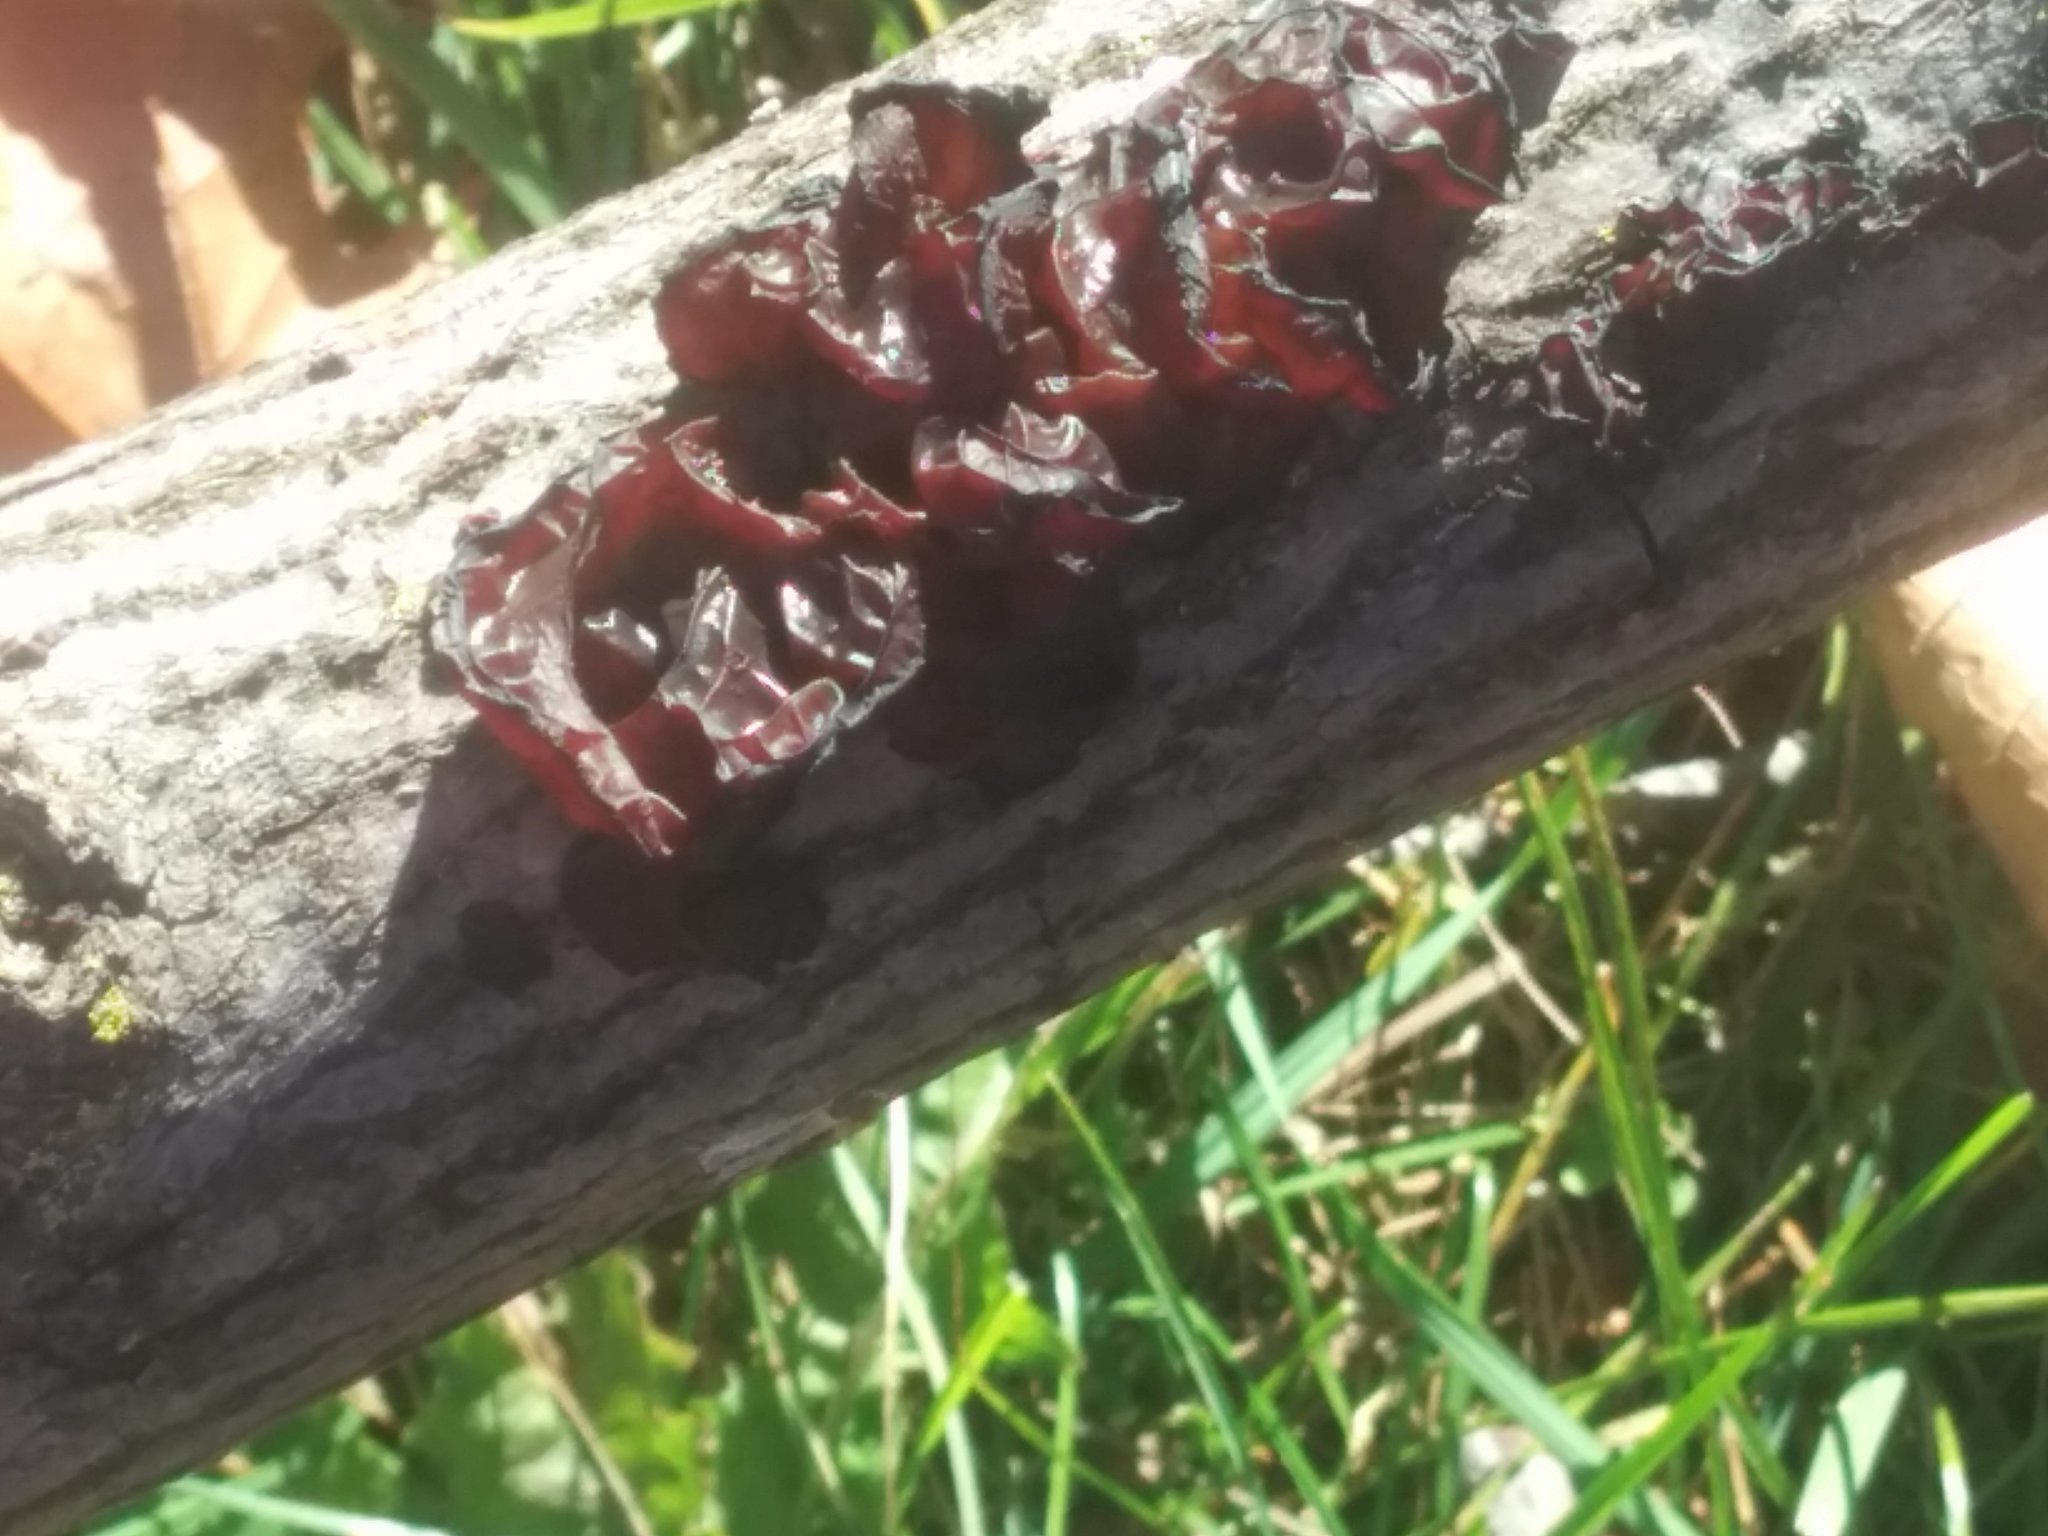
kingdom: Fungi
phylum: Basidiomycota
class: Agaricomycetes
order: Auriculariales
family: Auriculariaceae
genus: Exidia
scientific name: Exidia
